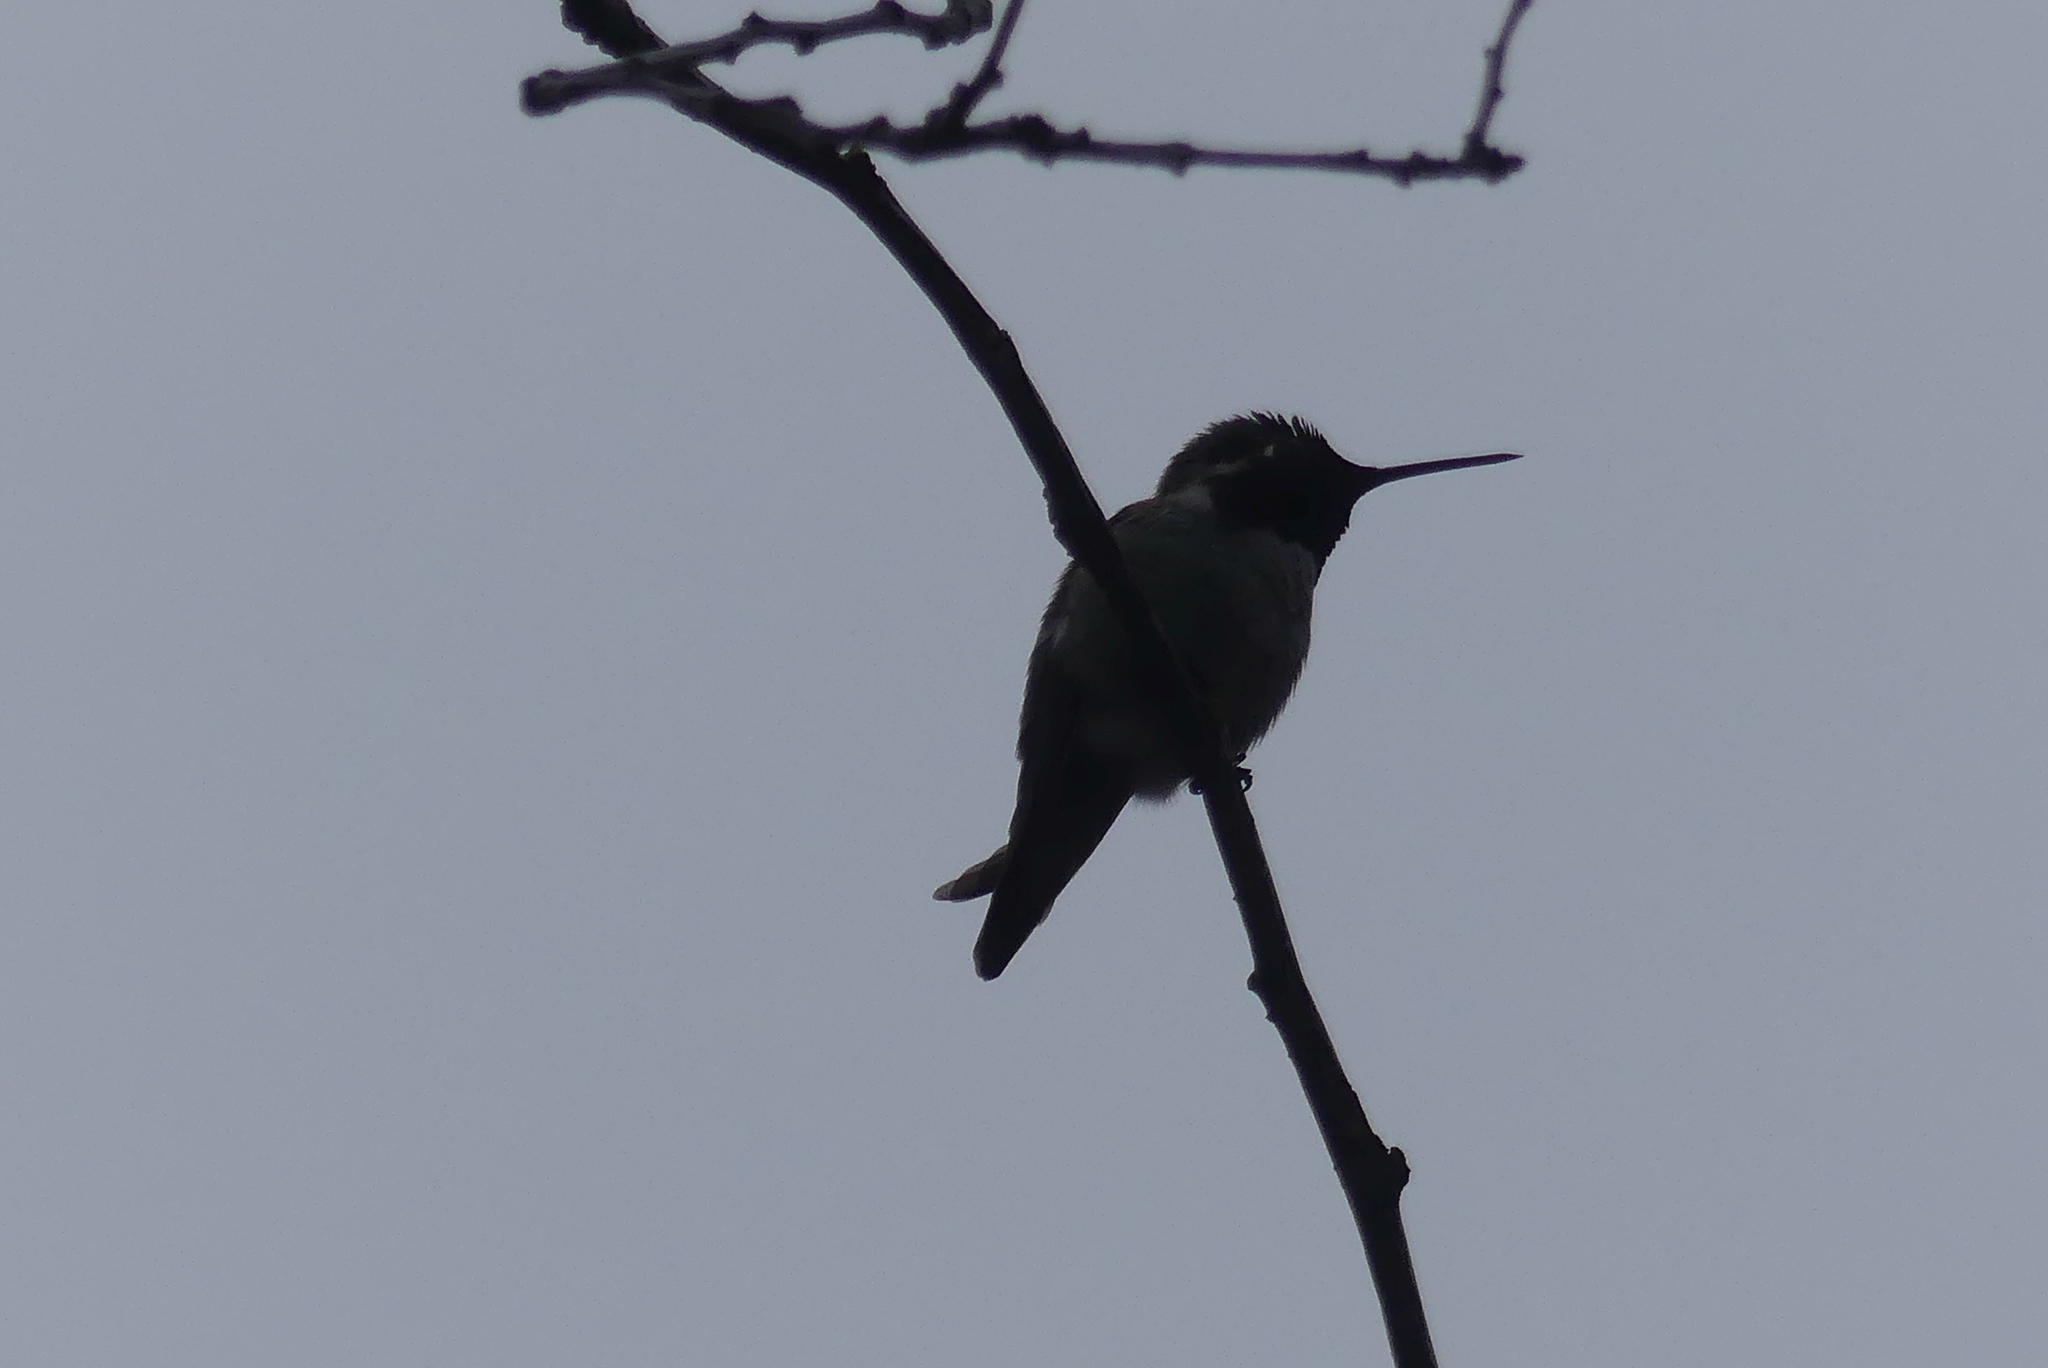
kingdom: Animalia
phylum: Chordata
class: Aves
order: Apodiformes
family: Trochilidae
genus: Calypte
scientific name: Calypte anna
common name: Anna's hummingbird
